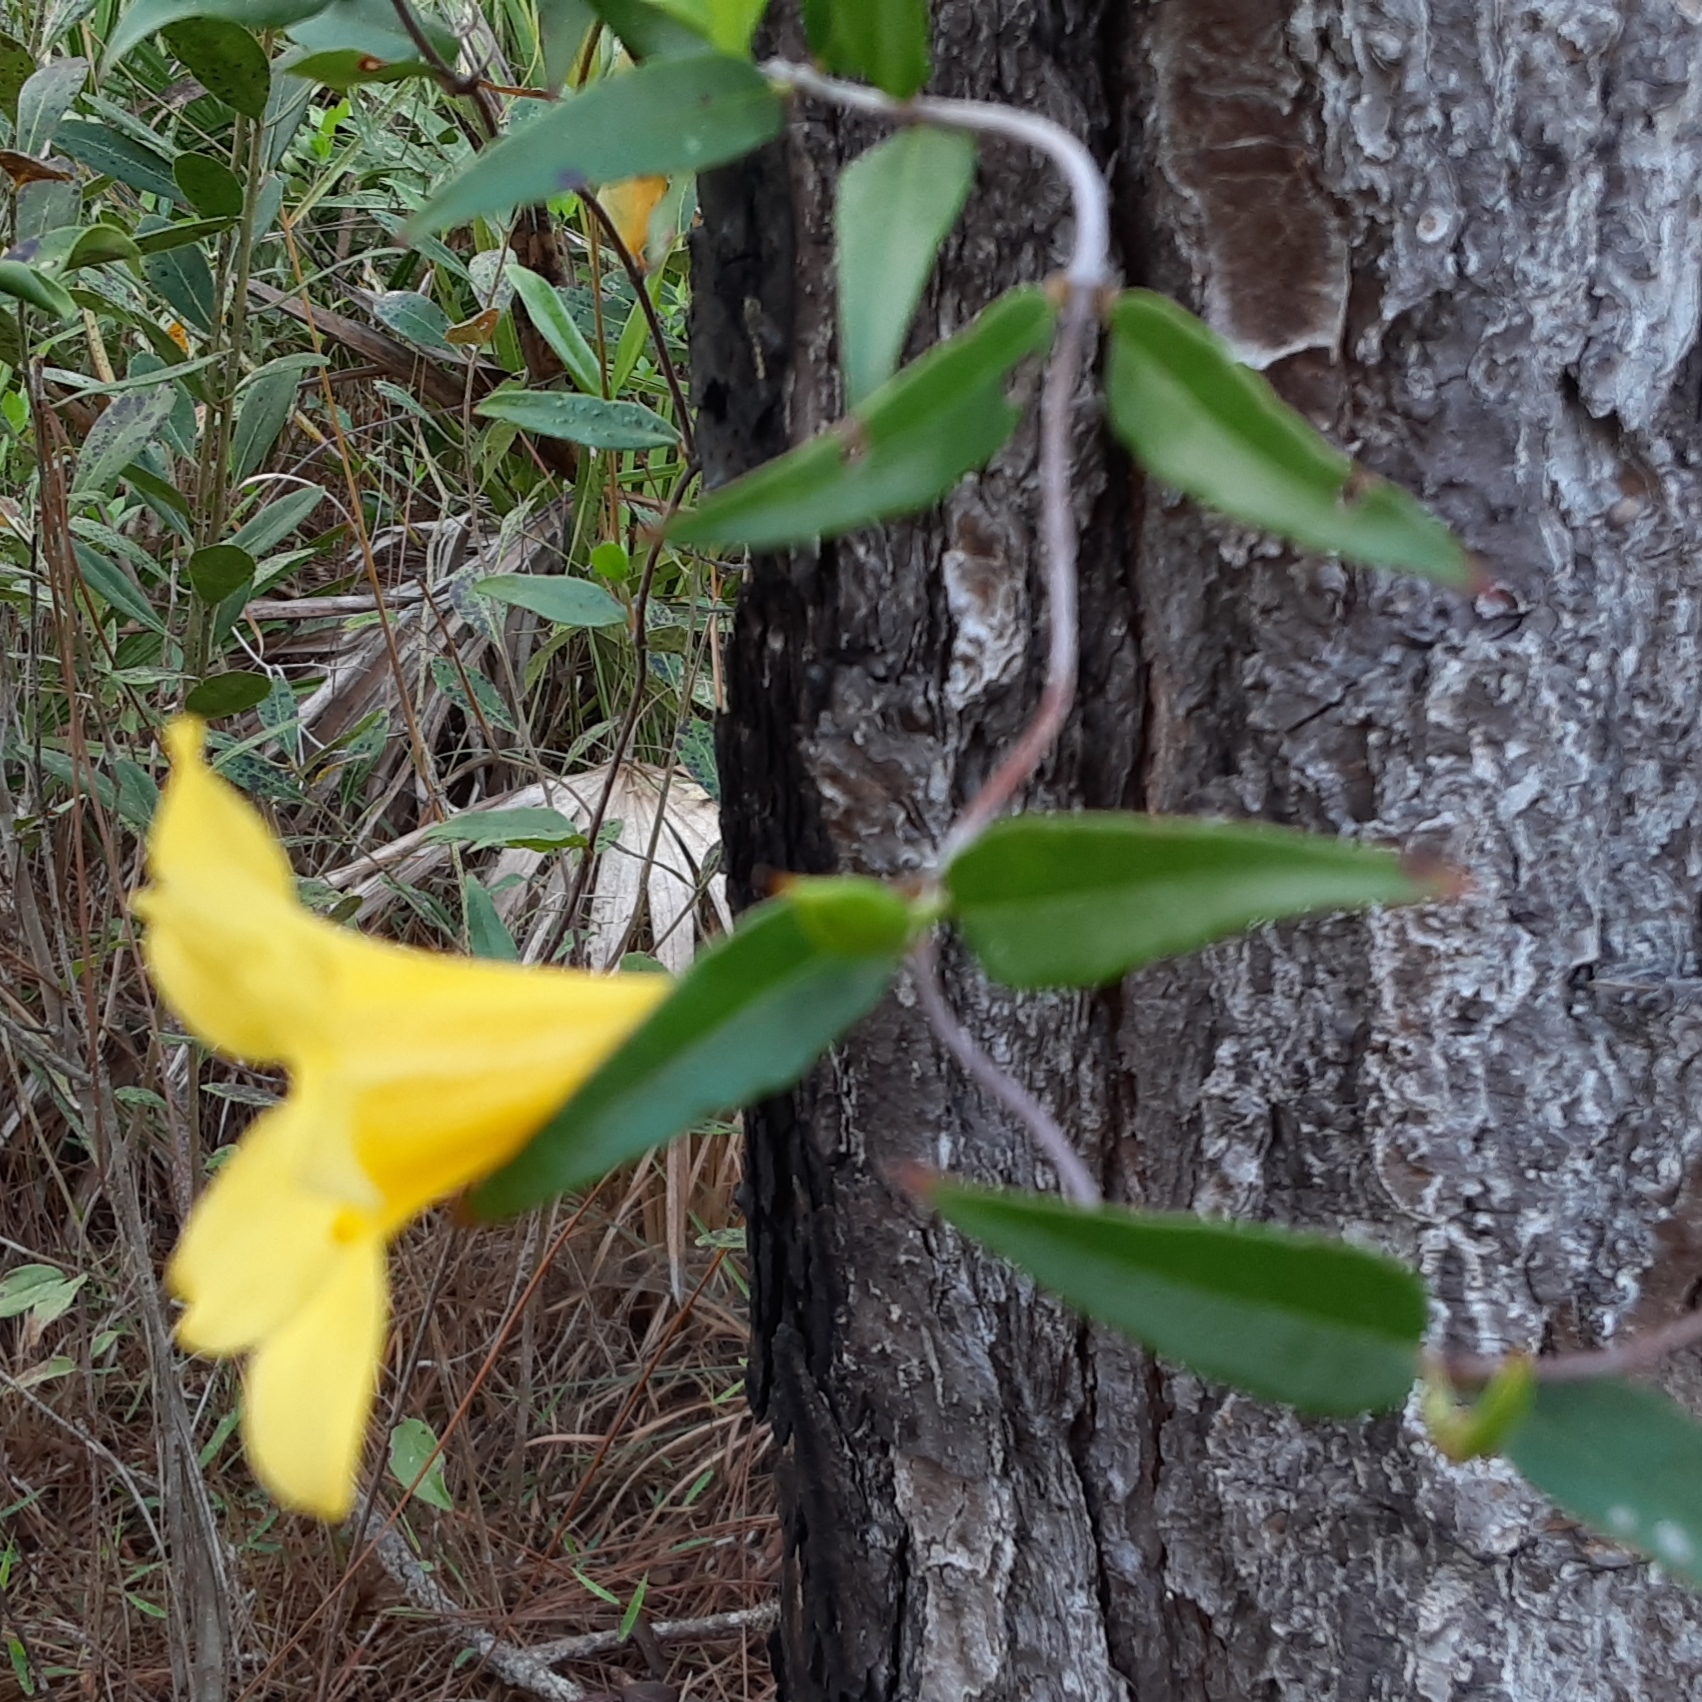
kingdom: Plantae
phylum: Tracheophyta
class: Magnoliopsida
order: Gentianales
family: Gelsemiaceae
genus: Gelsemium
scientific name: Gelsemium sempervirens
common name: Carolina-jasmine
